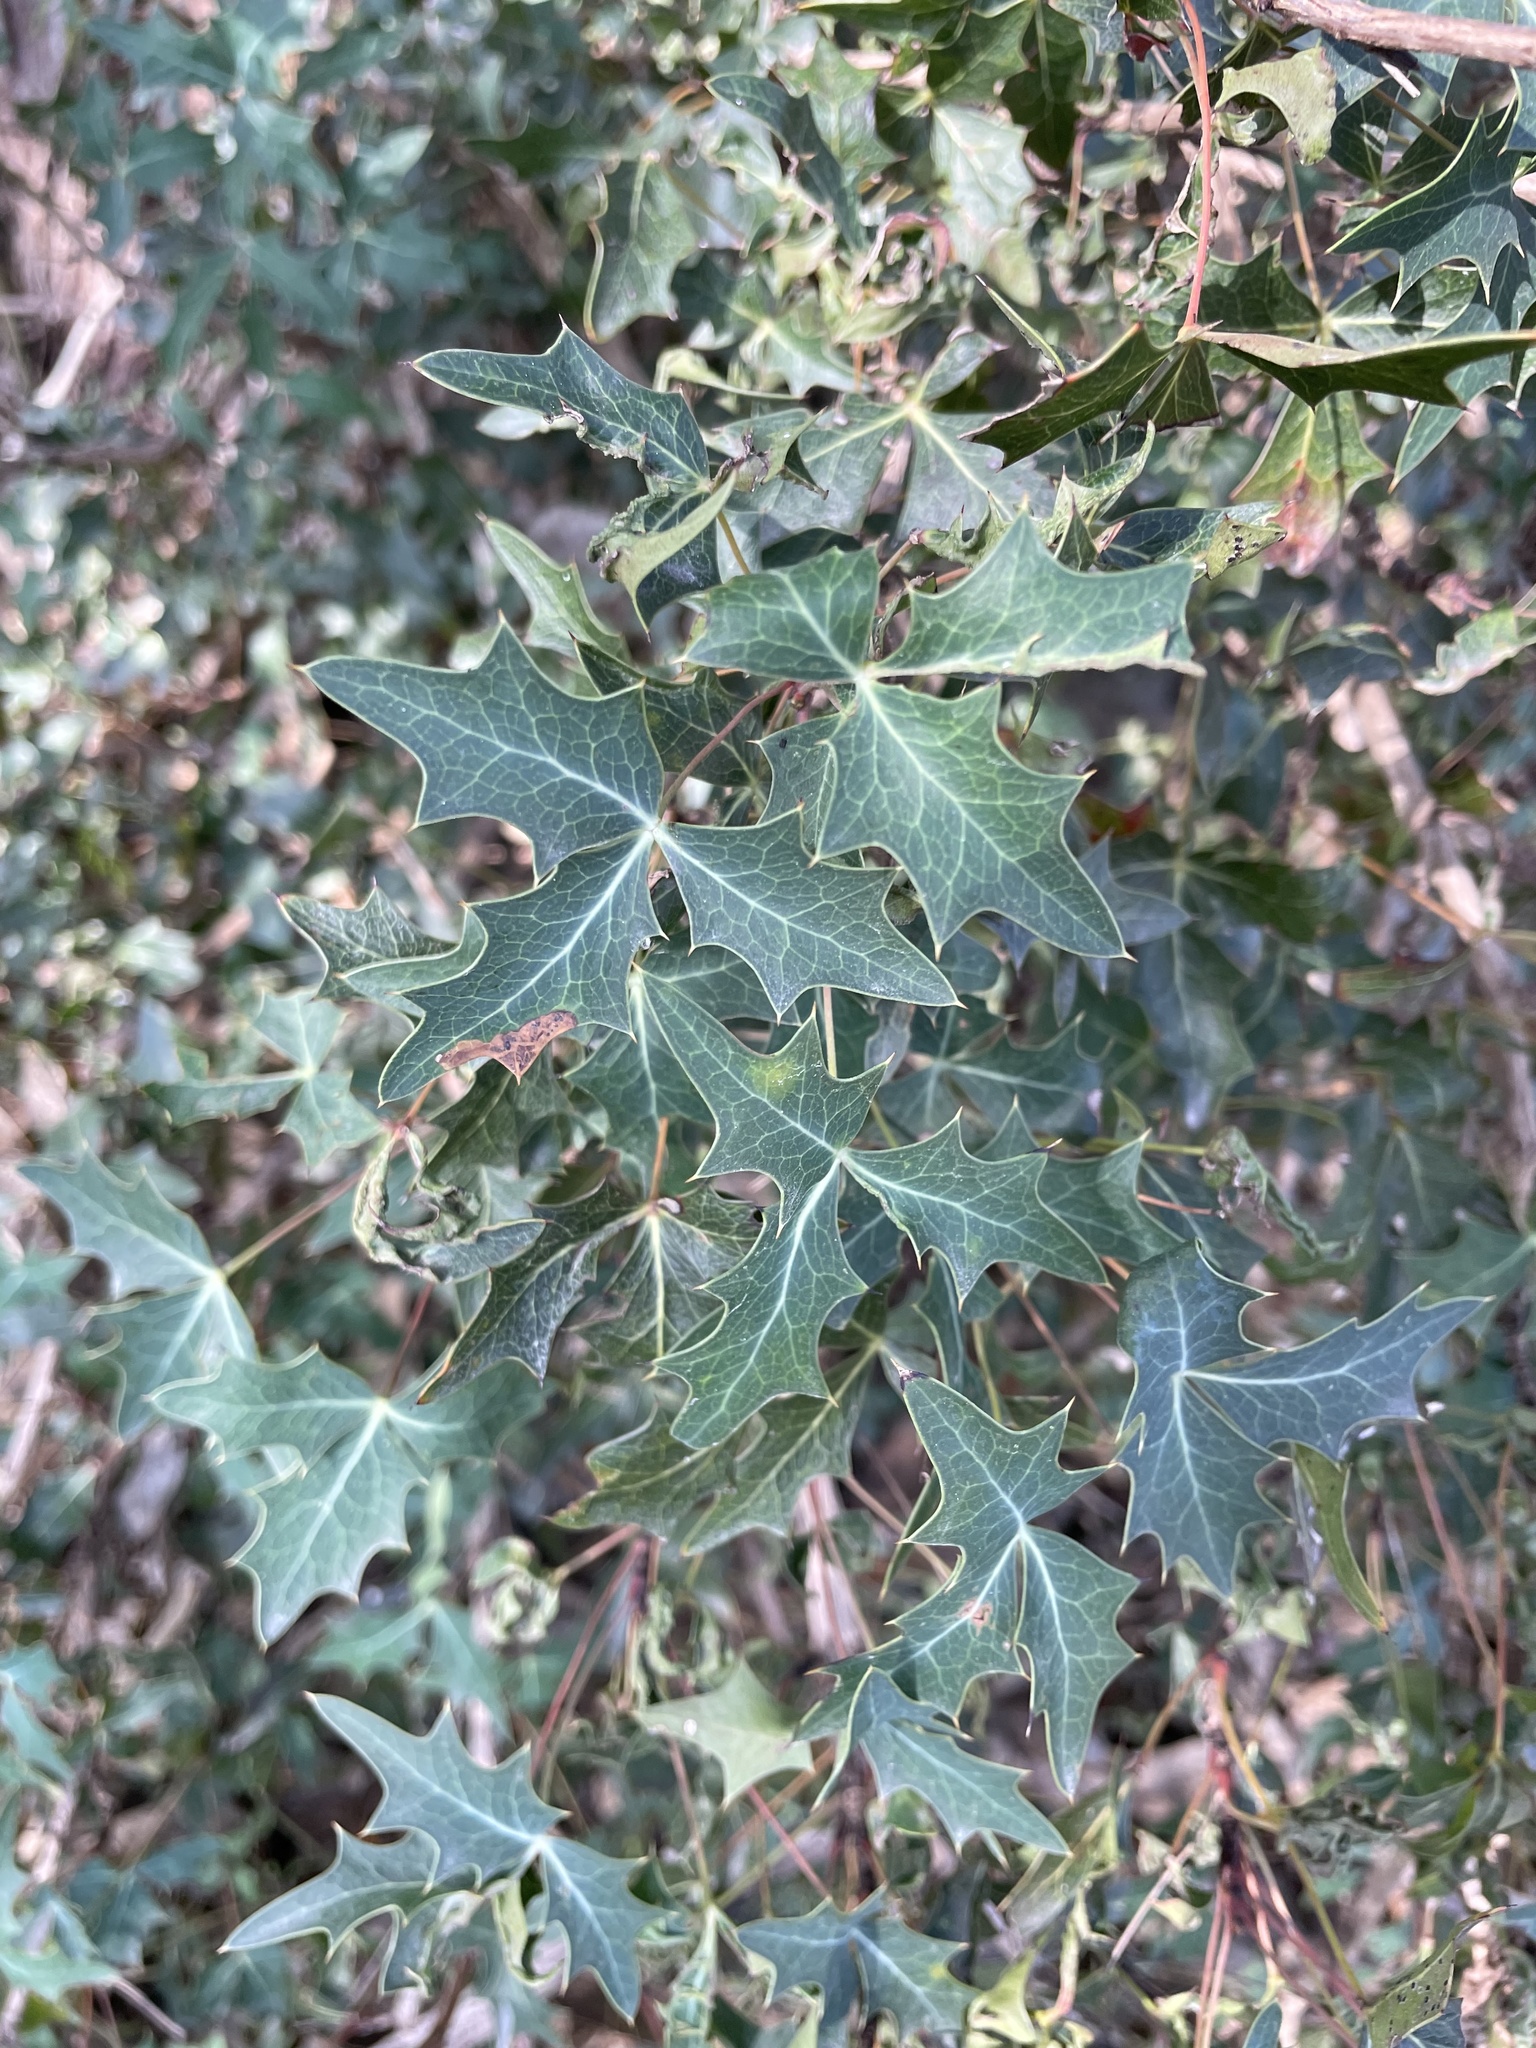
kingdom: Plantae
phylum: Tracheophyta
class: Magnoliopsida
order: Ranunculales
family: Berberidaceae
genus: Alloberberis
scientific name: Alloberberis trifoliolata
